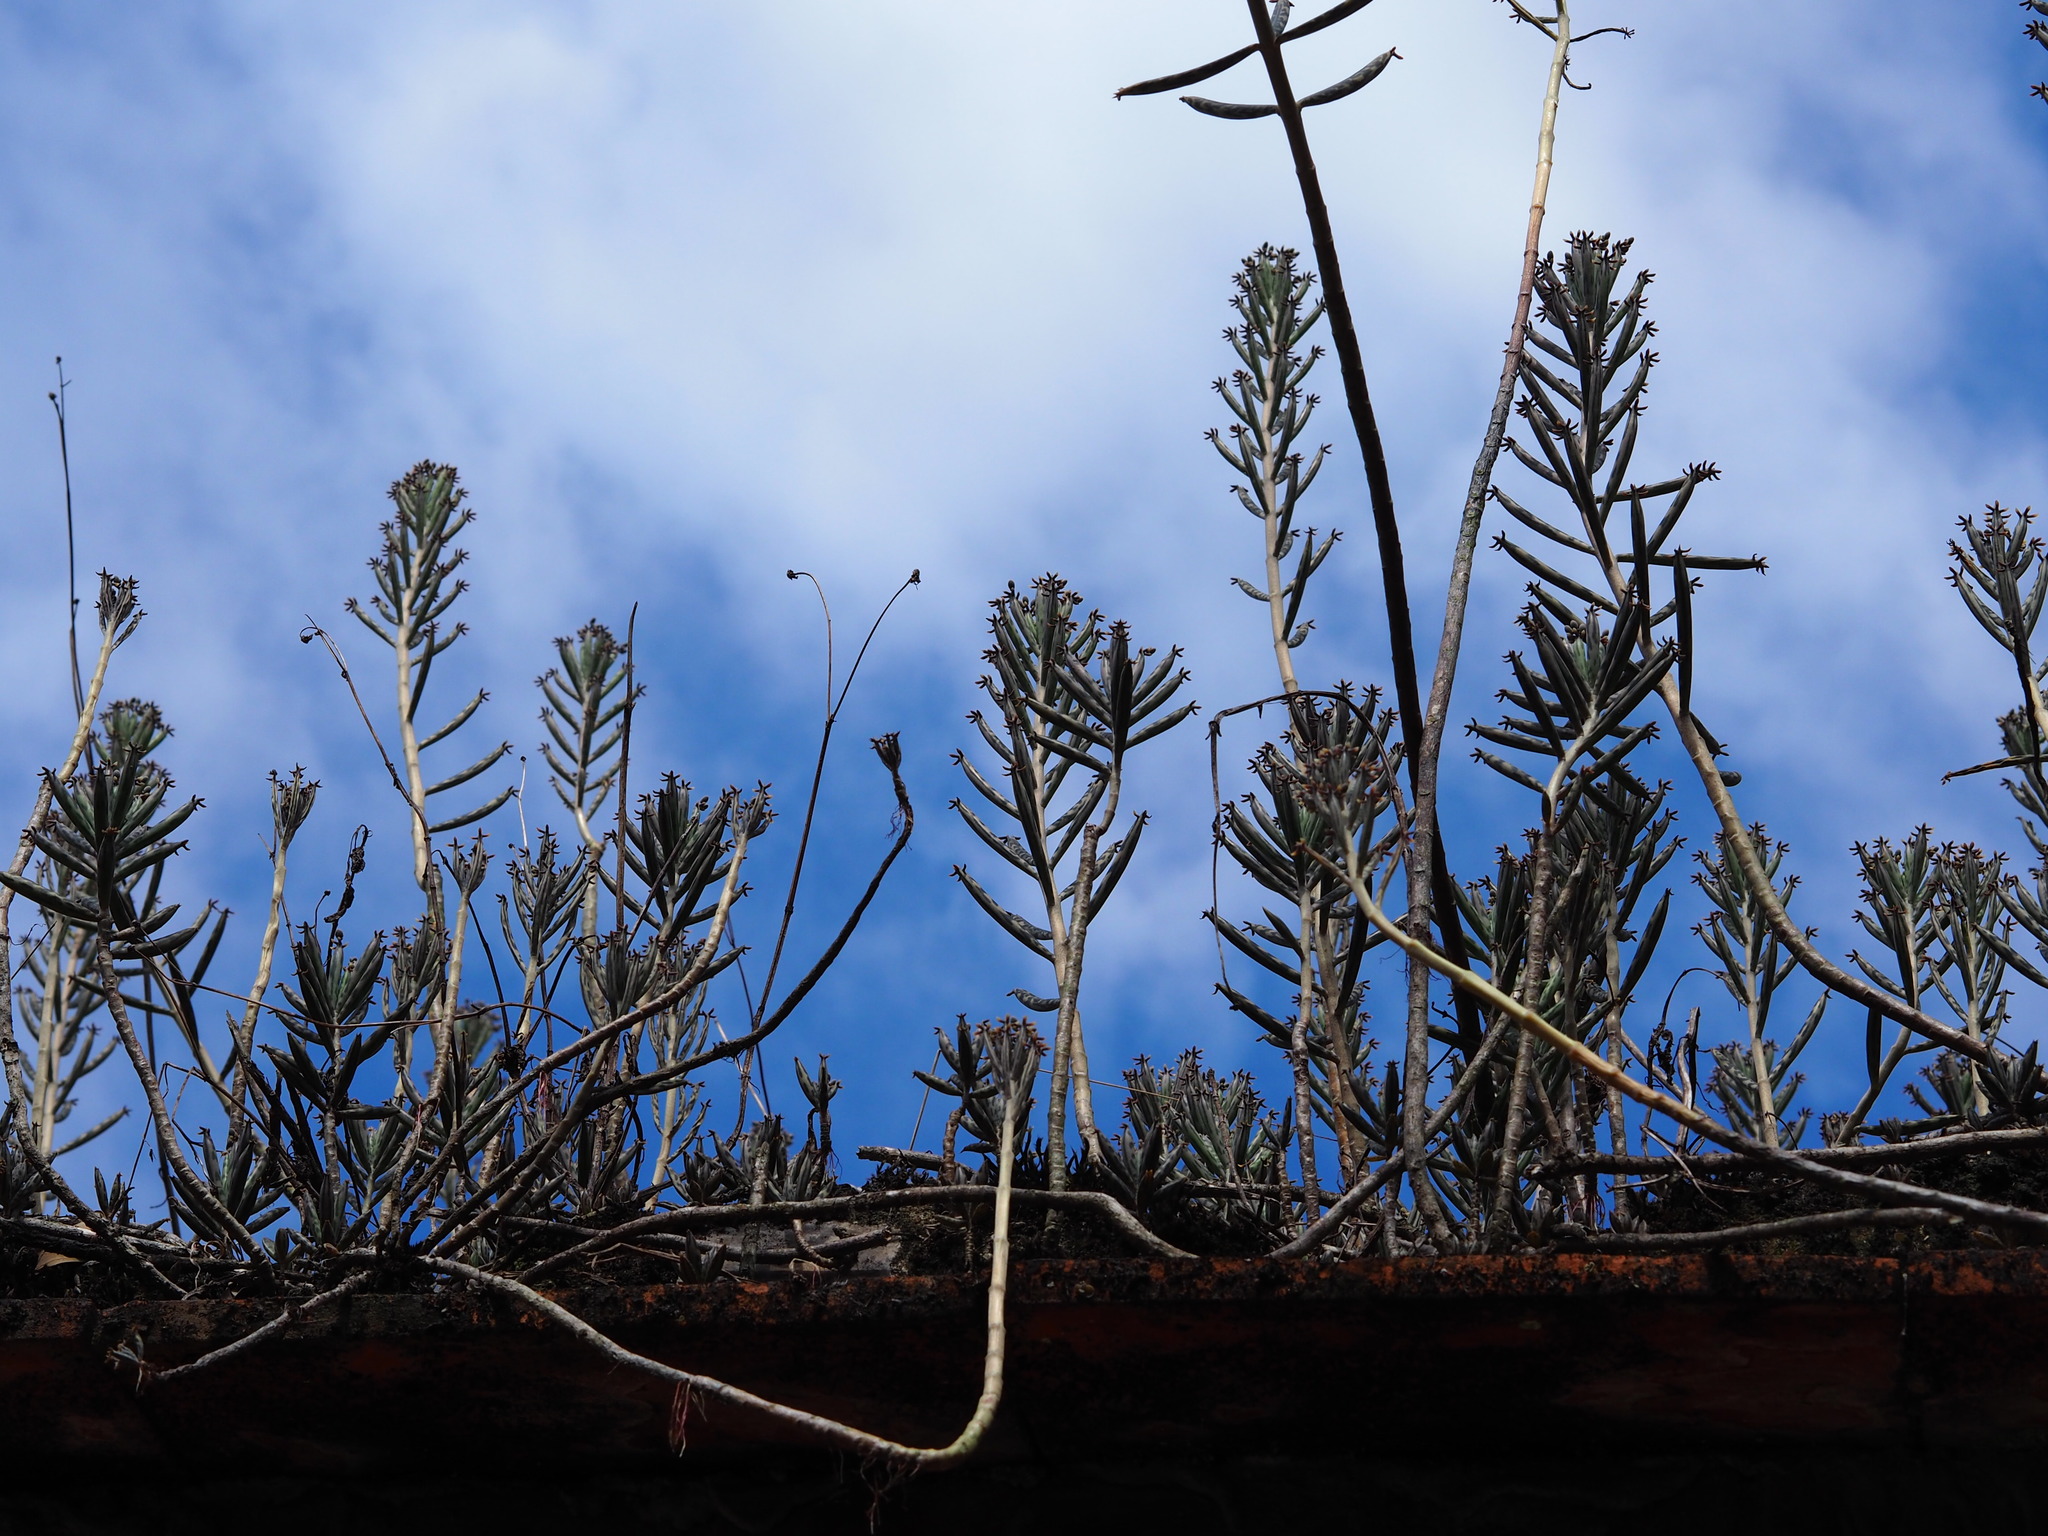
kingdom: Plantae
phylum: Tracheophyta
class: Magnoliopsida
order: Saxifragales
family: Crassulaceae
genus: Kalanchoe
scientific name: Kalanchoe delagoensis
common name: Chandelier plant
